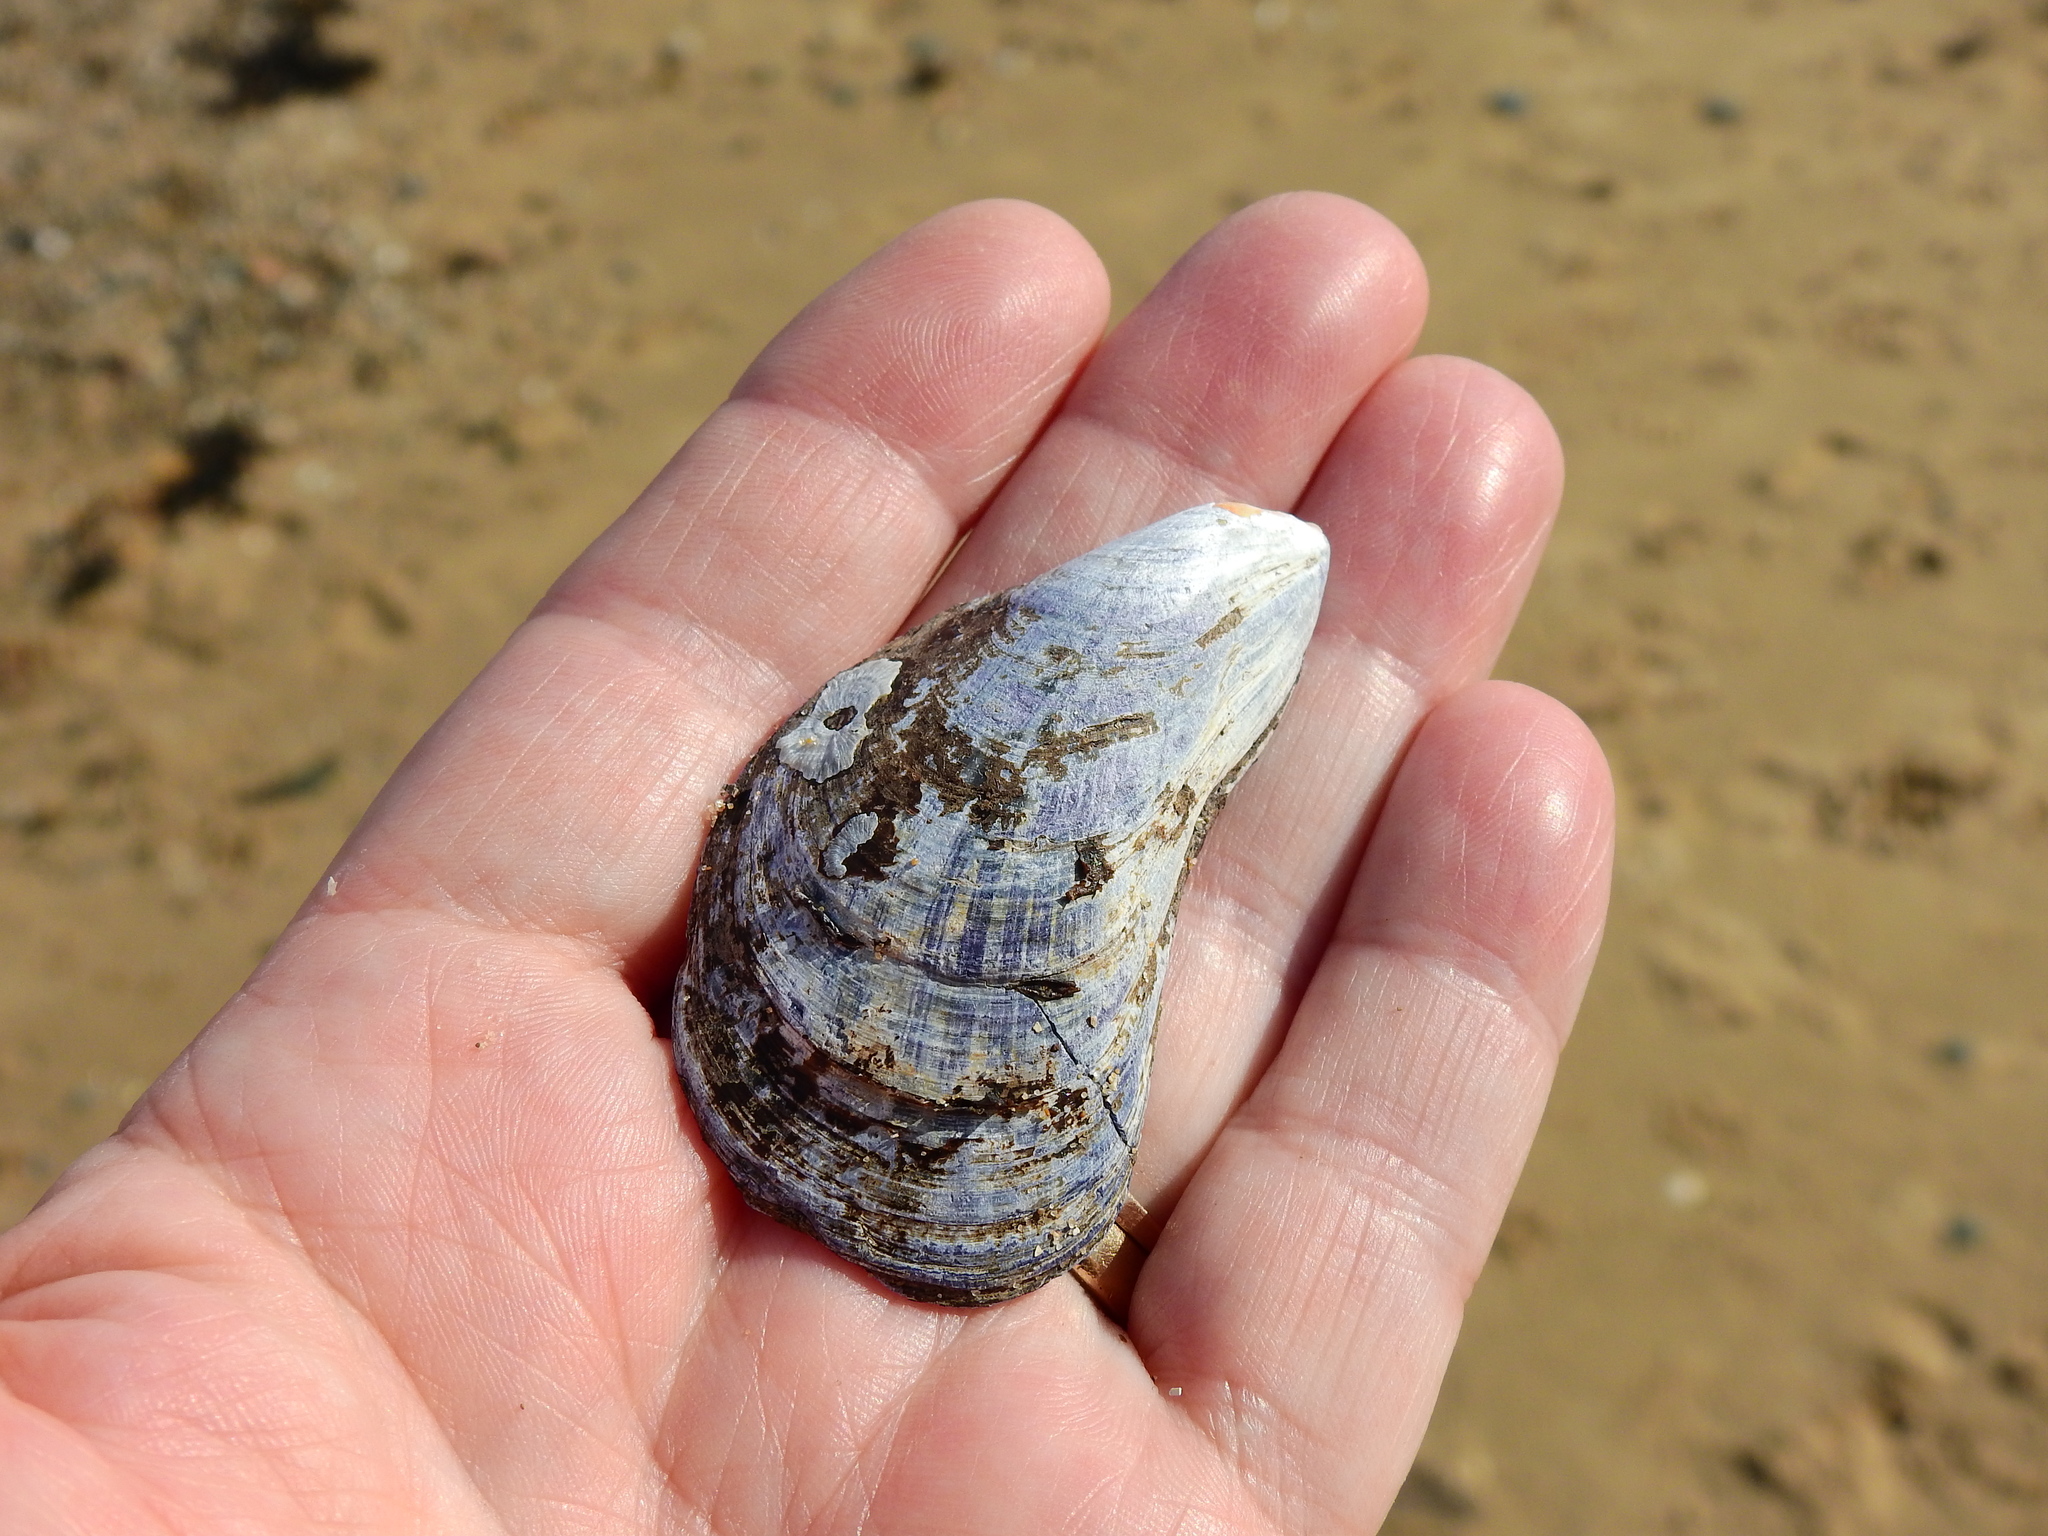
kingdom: Animalia
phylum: Mollusca
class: Bivalvia
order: Mytilida
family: Mytilidae
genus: Mytilus
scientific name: Mytilus edulis
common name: Blue mussel
